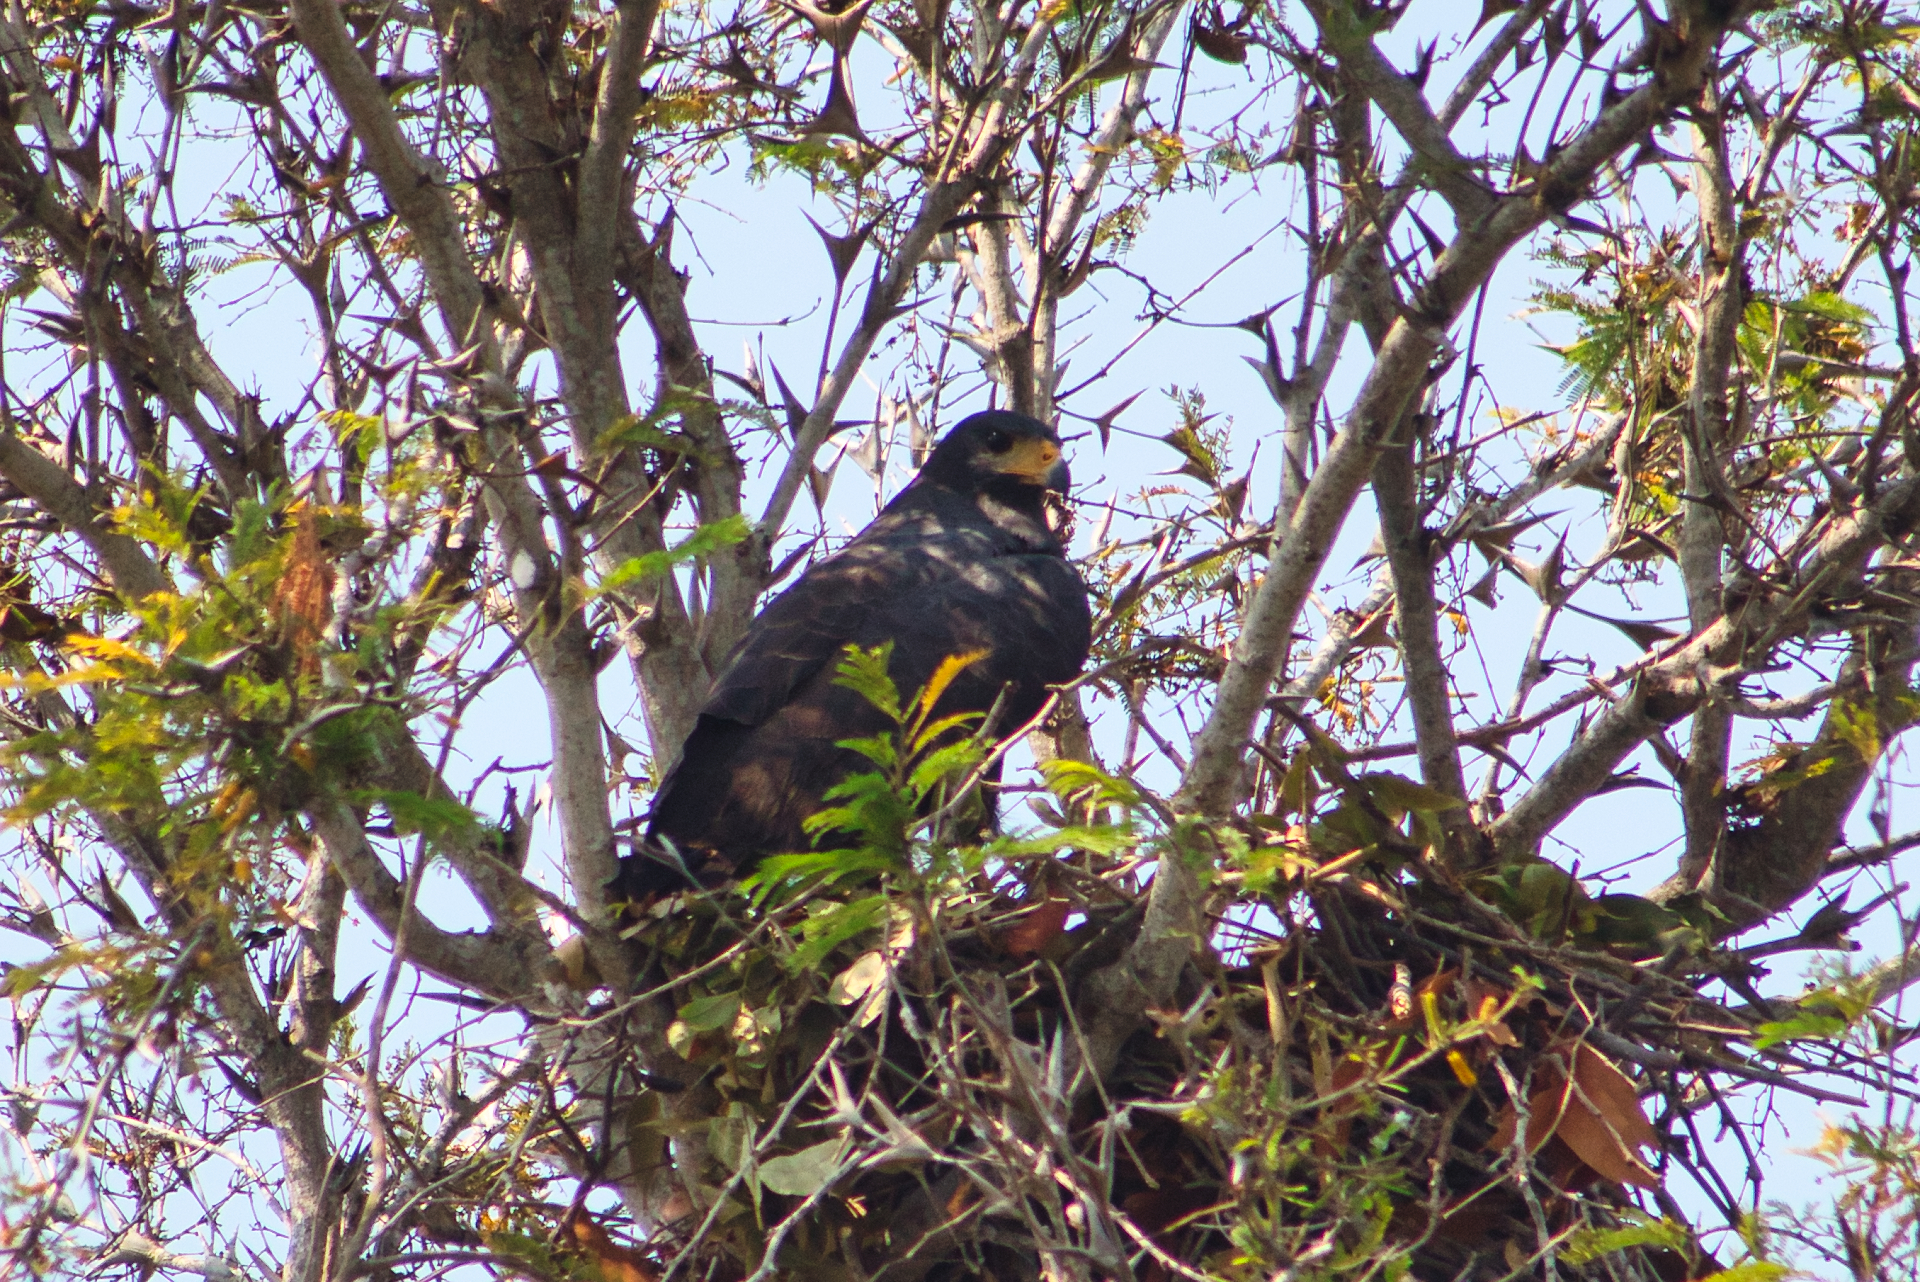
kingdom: Animalia
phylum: Chordata
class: Aves
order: Accipitriformes
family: Accipitridae
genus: Buteogallus
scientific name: Buteogallus anthracinus
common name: Common black hawk
